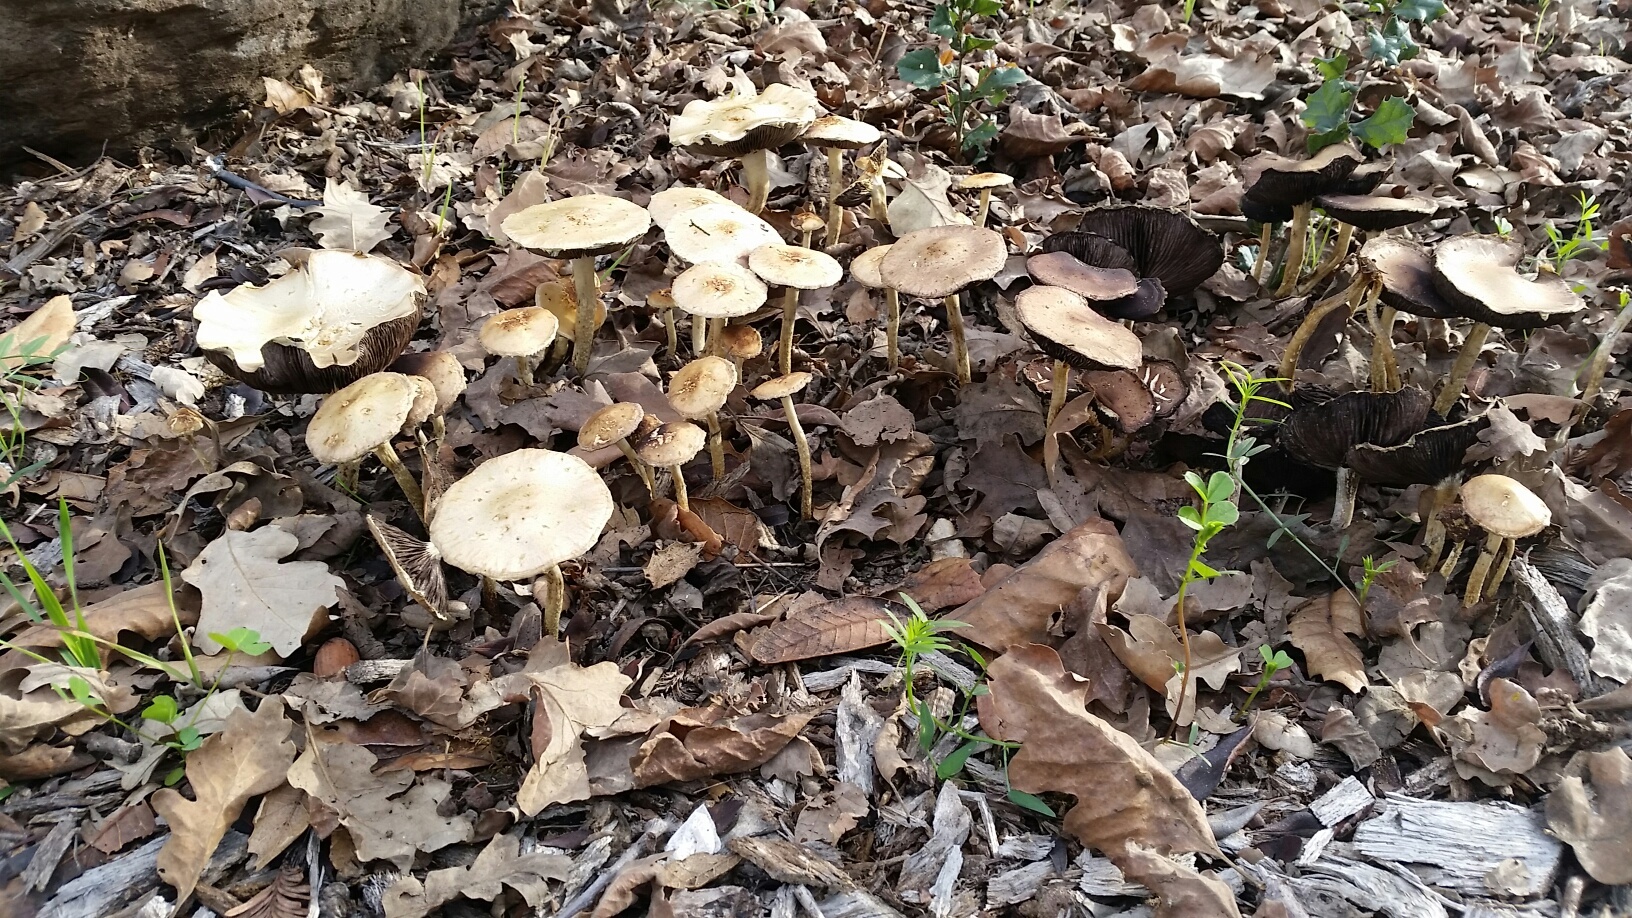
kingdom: Fungi
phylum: Basidiomycota
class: Agaricomycetes
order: Agaricales
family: Strophariaceae
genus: Leratiomyces
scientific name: Leratiomyces percevalii
